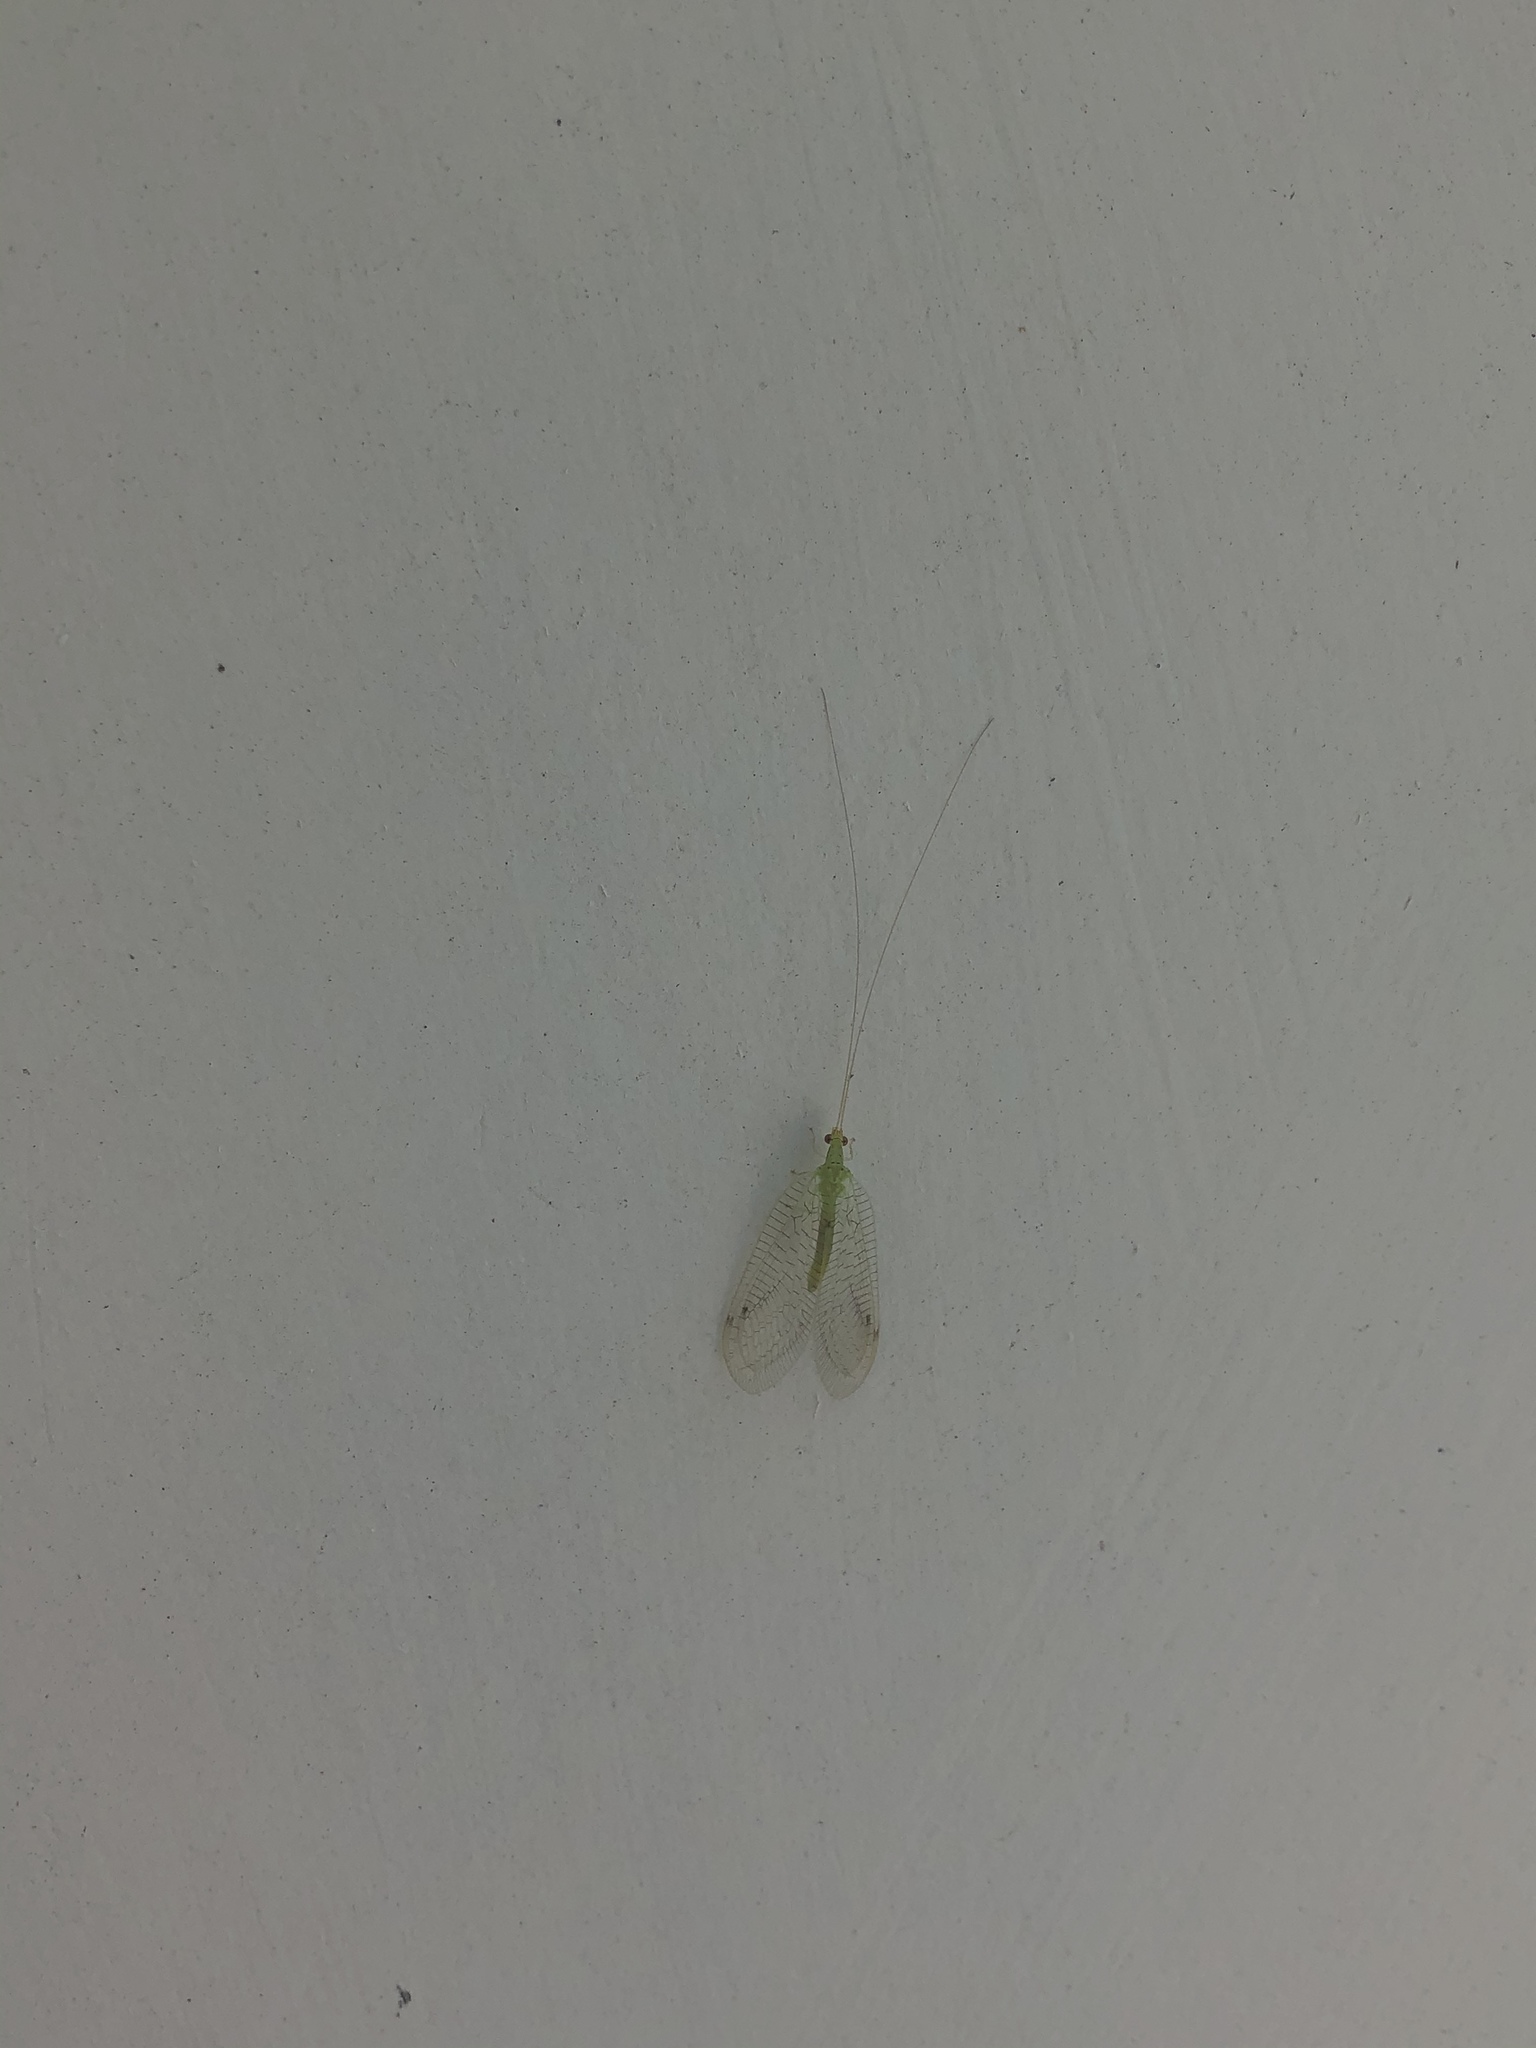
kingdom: Animalia
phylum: Arthropoda
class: Insecta
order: Neuroptera
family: Chrysopidae
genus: Leucochrysa
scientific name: Leucochrysa floridana
